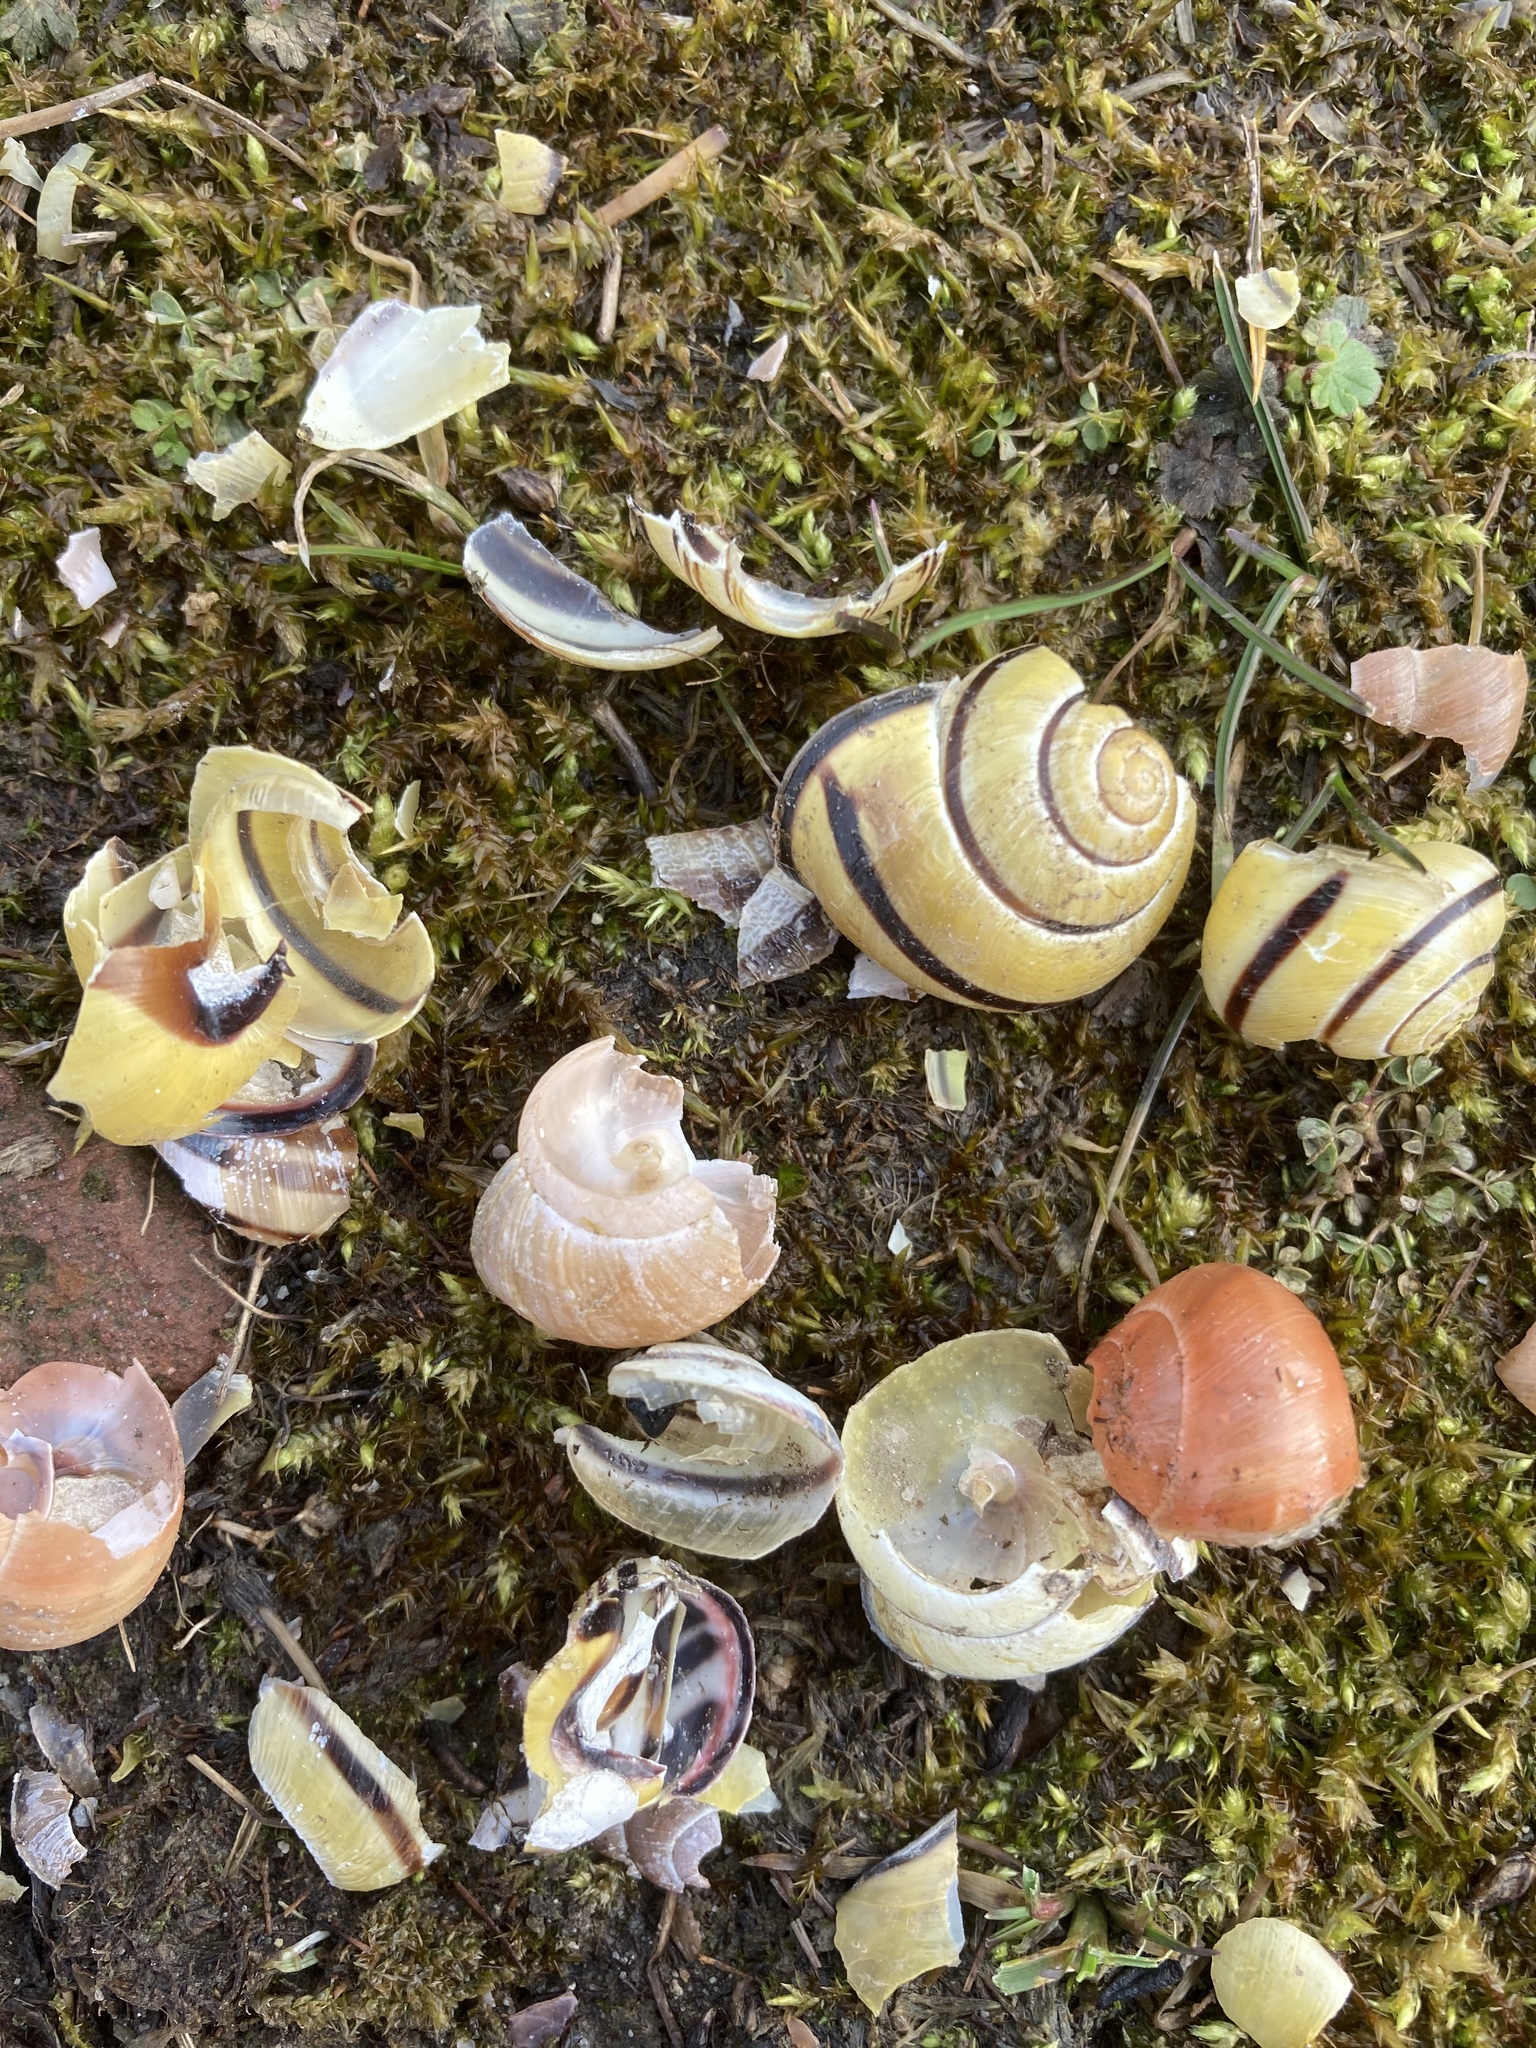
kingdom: Animalia
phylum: Mollusca
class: Gastropoda
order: Stylommatophora
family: Helicidae
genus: Cepaea
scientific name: Cepaea nemoralis
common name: Grovesnail
